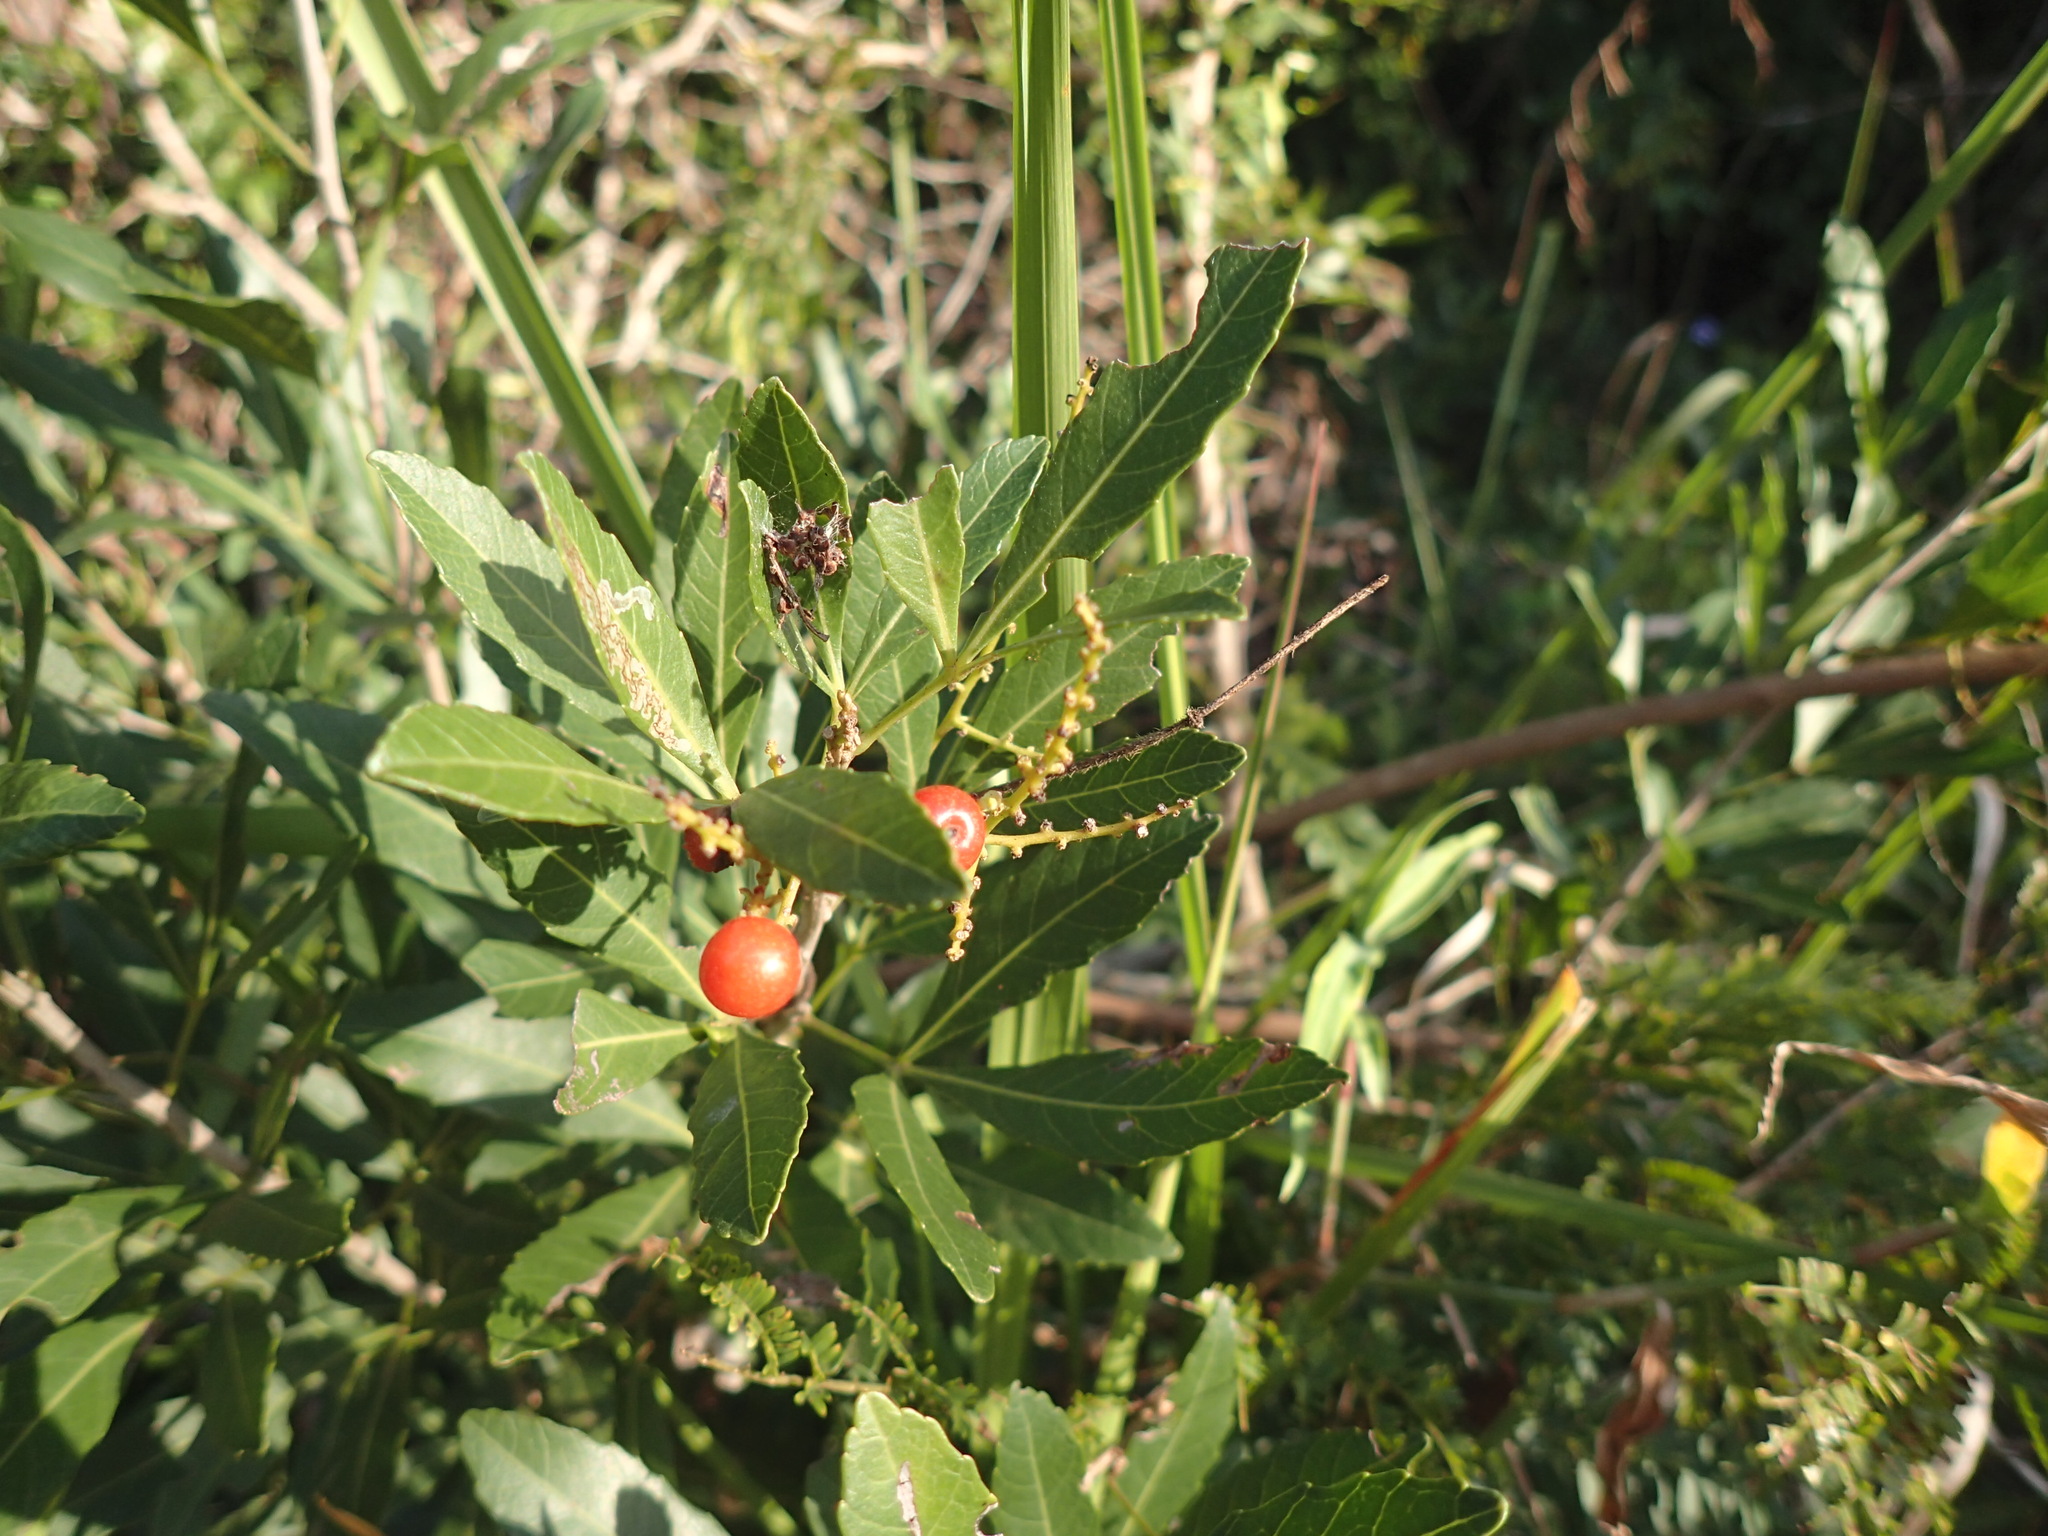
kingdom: Plantae
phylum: Tracheophyta
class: Magnoliopsida
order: Sapindales
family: Sapindaceae
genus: Allophylus
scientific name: Allophylus natalensis
